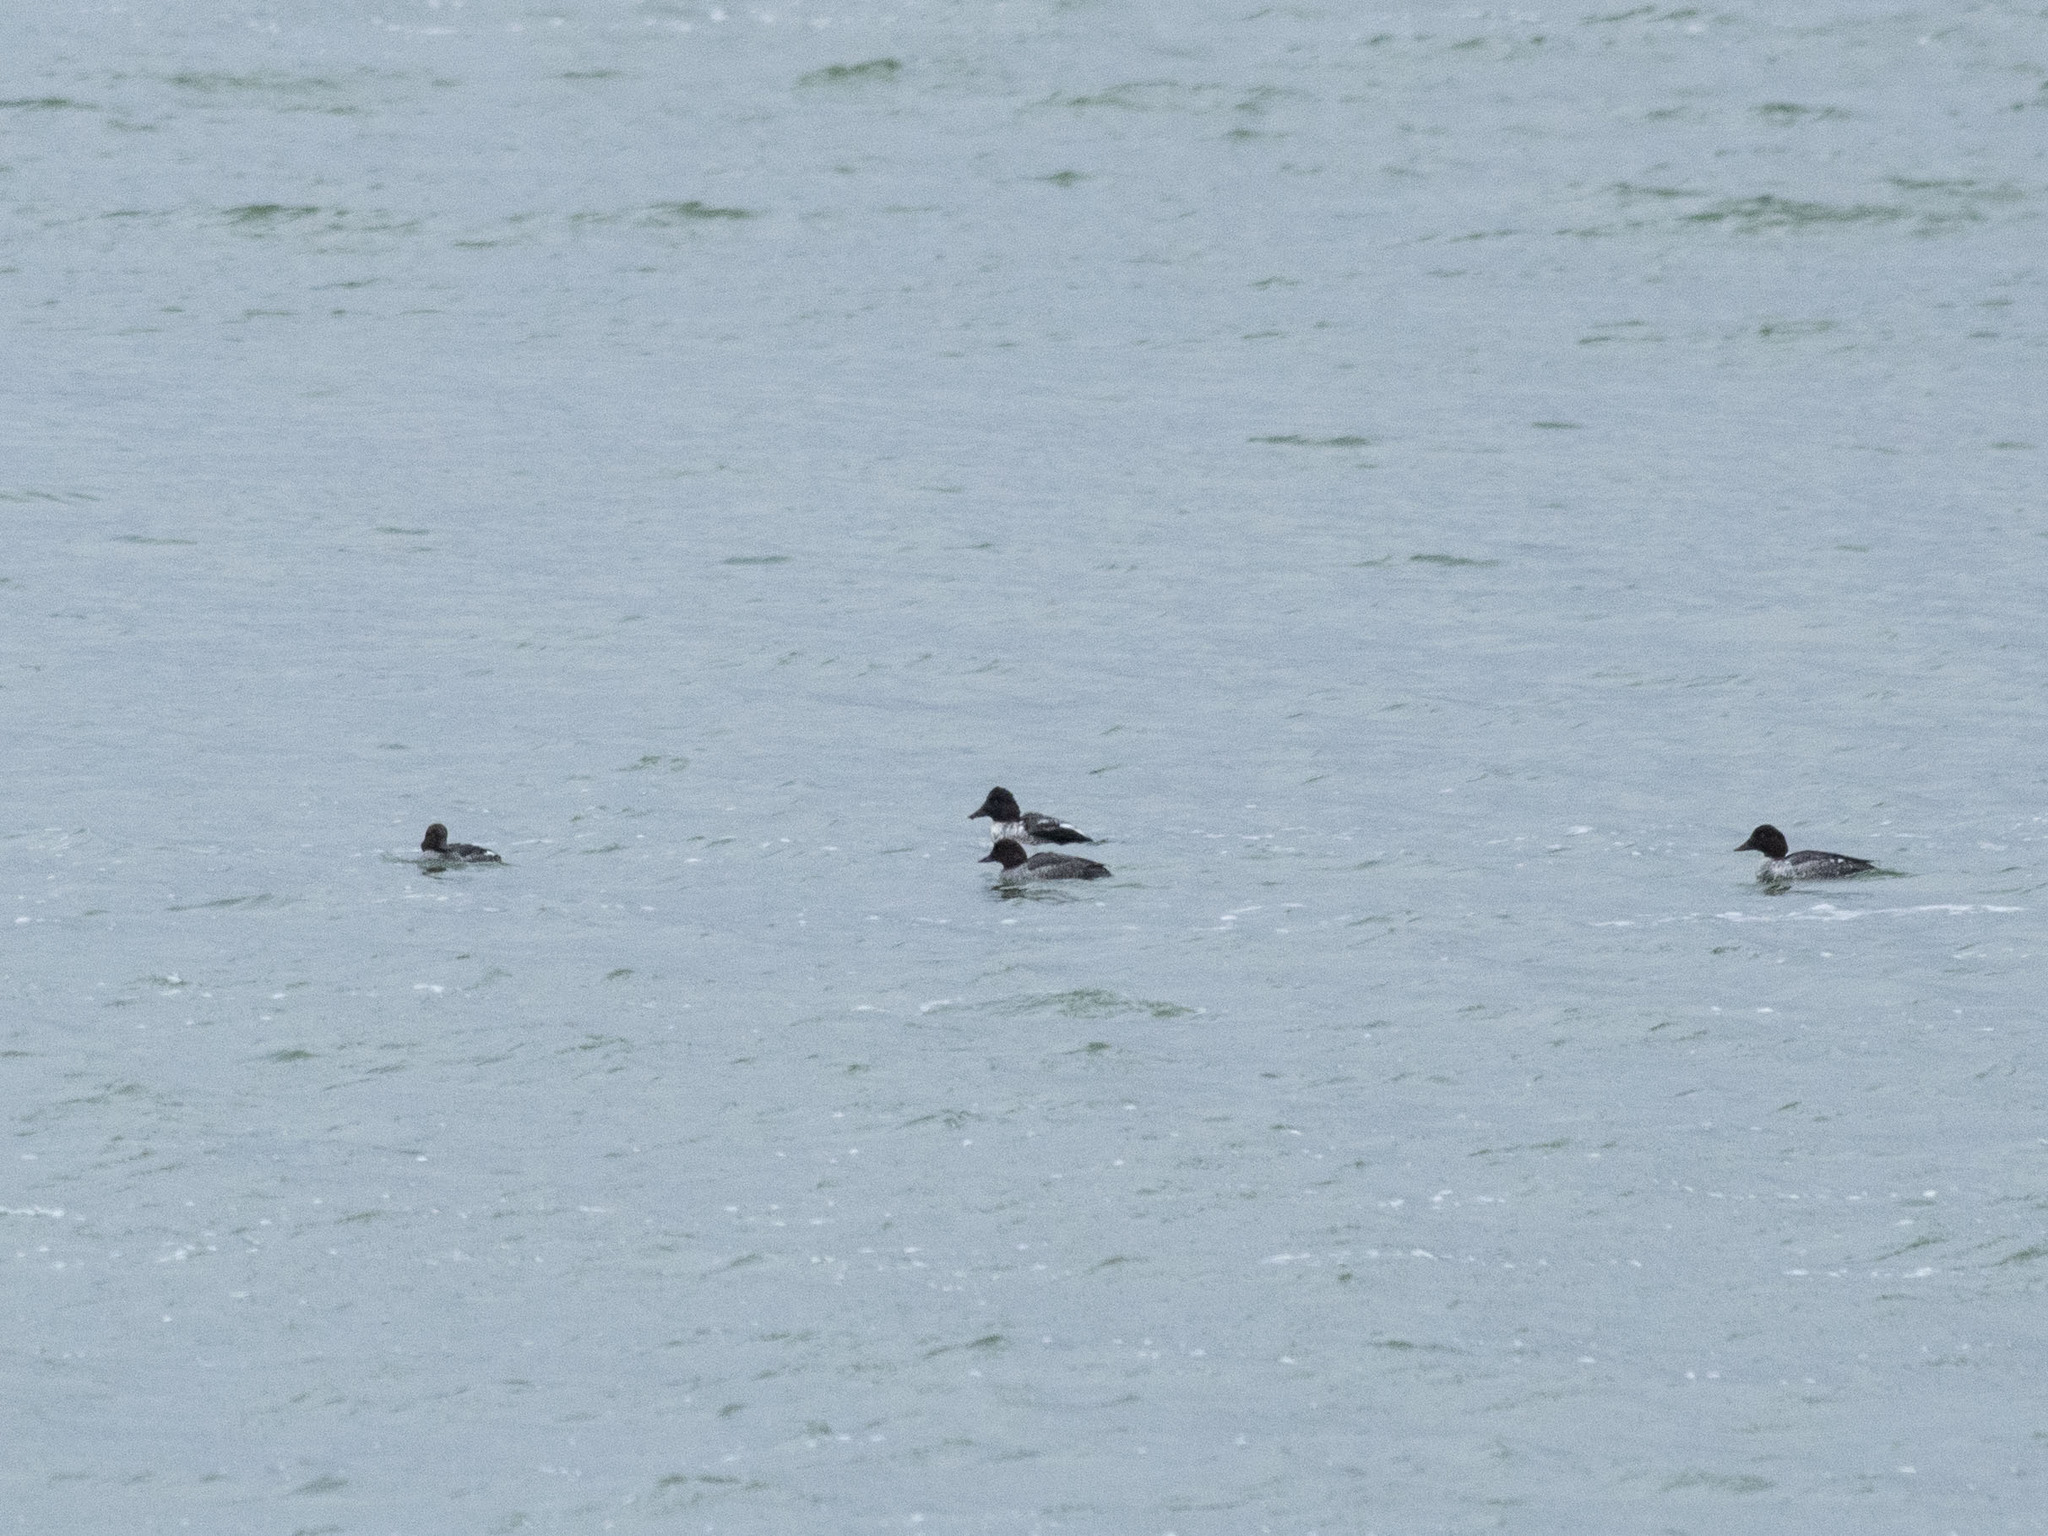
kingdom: Animalia
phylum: Chordata
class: Aves
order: Anseriformes
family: Anatidae
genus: Bucephala
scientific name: Bucephala clangula
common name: Common goldeneye
